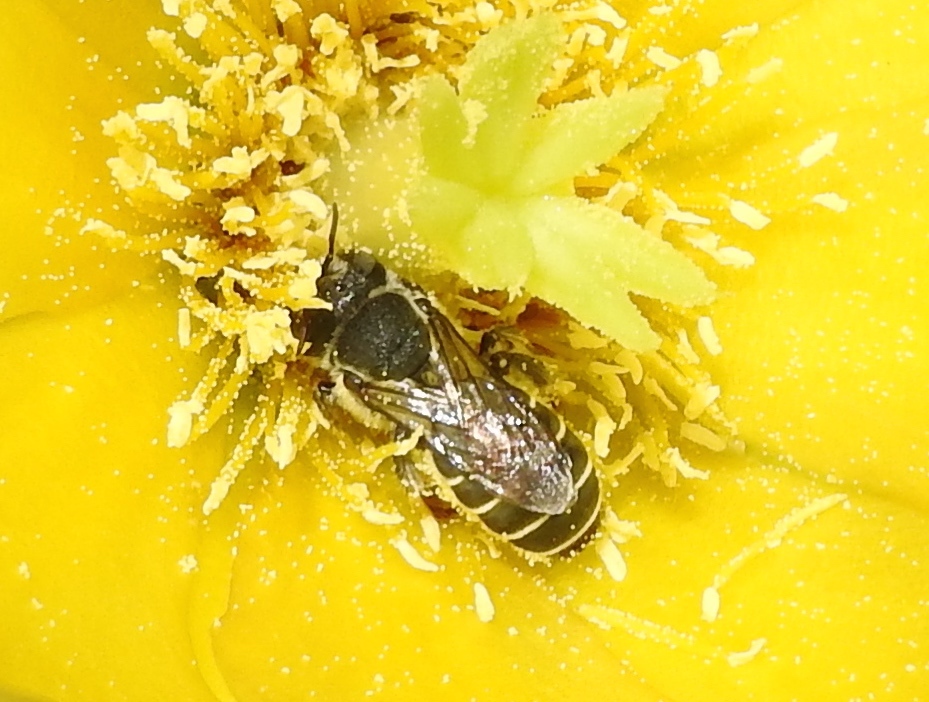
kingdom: Animalia
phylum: Arthropoda
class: Insecta
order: Hymenoptera
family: Megachilidae
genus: Lithurgopsis
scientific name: Lithurgopsis
